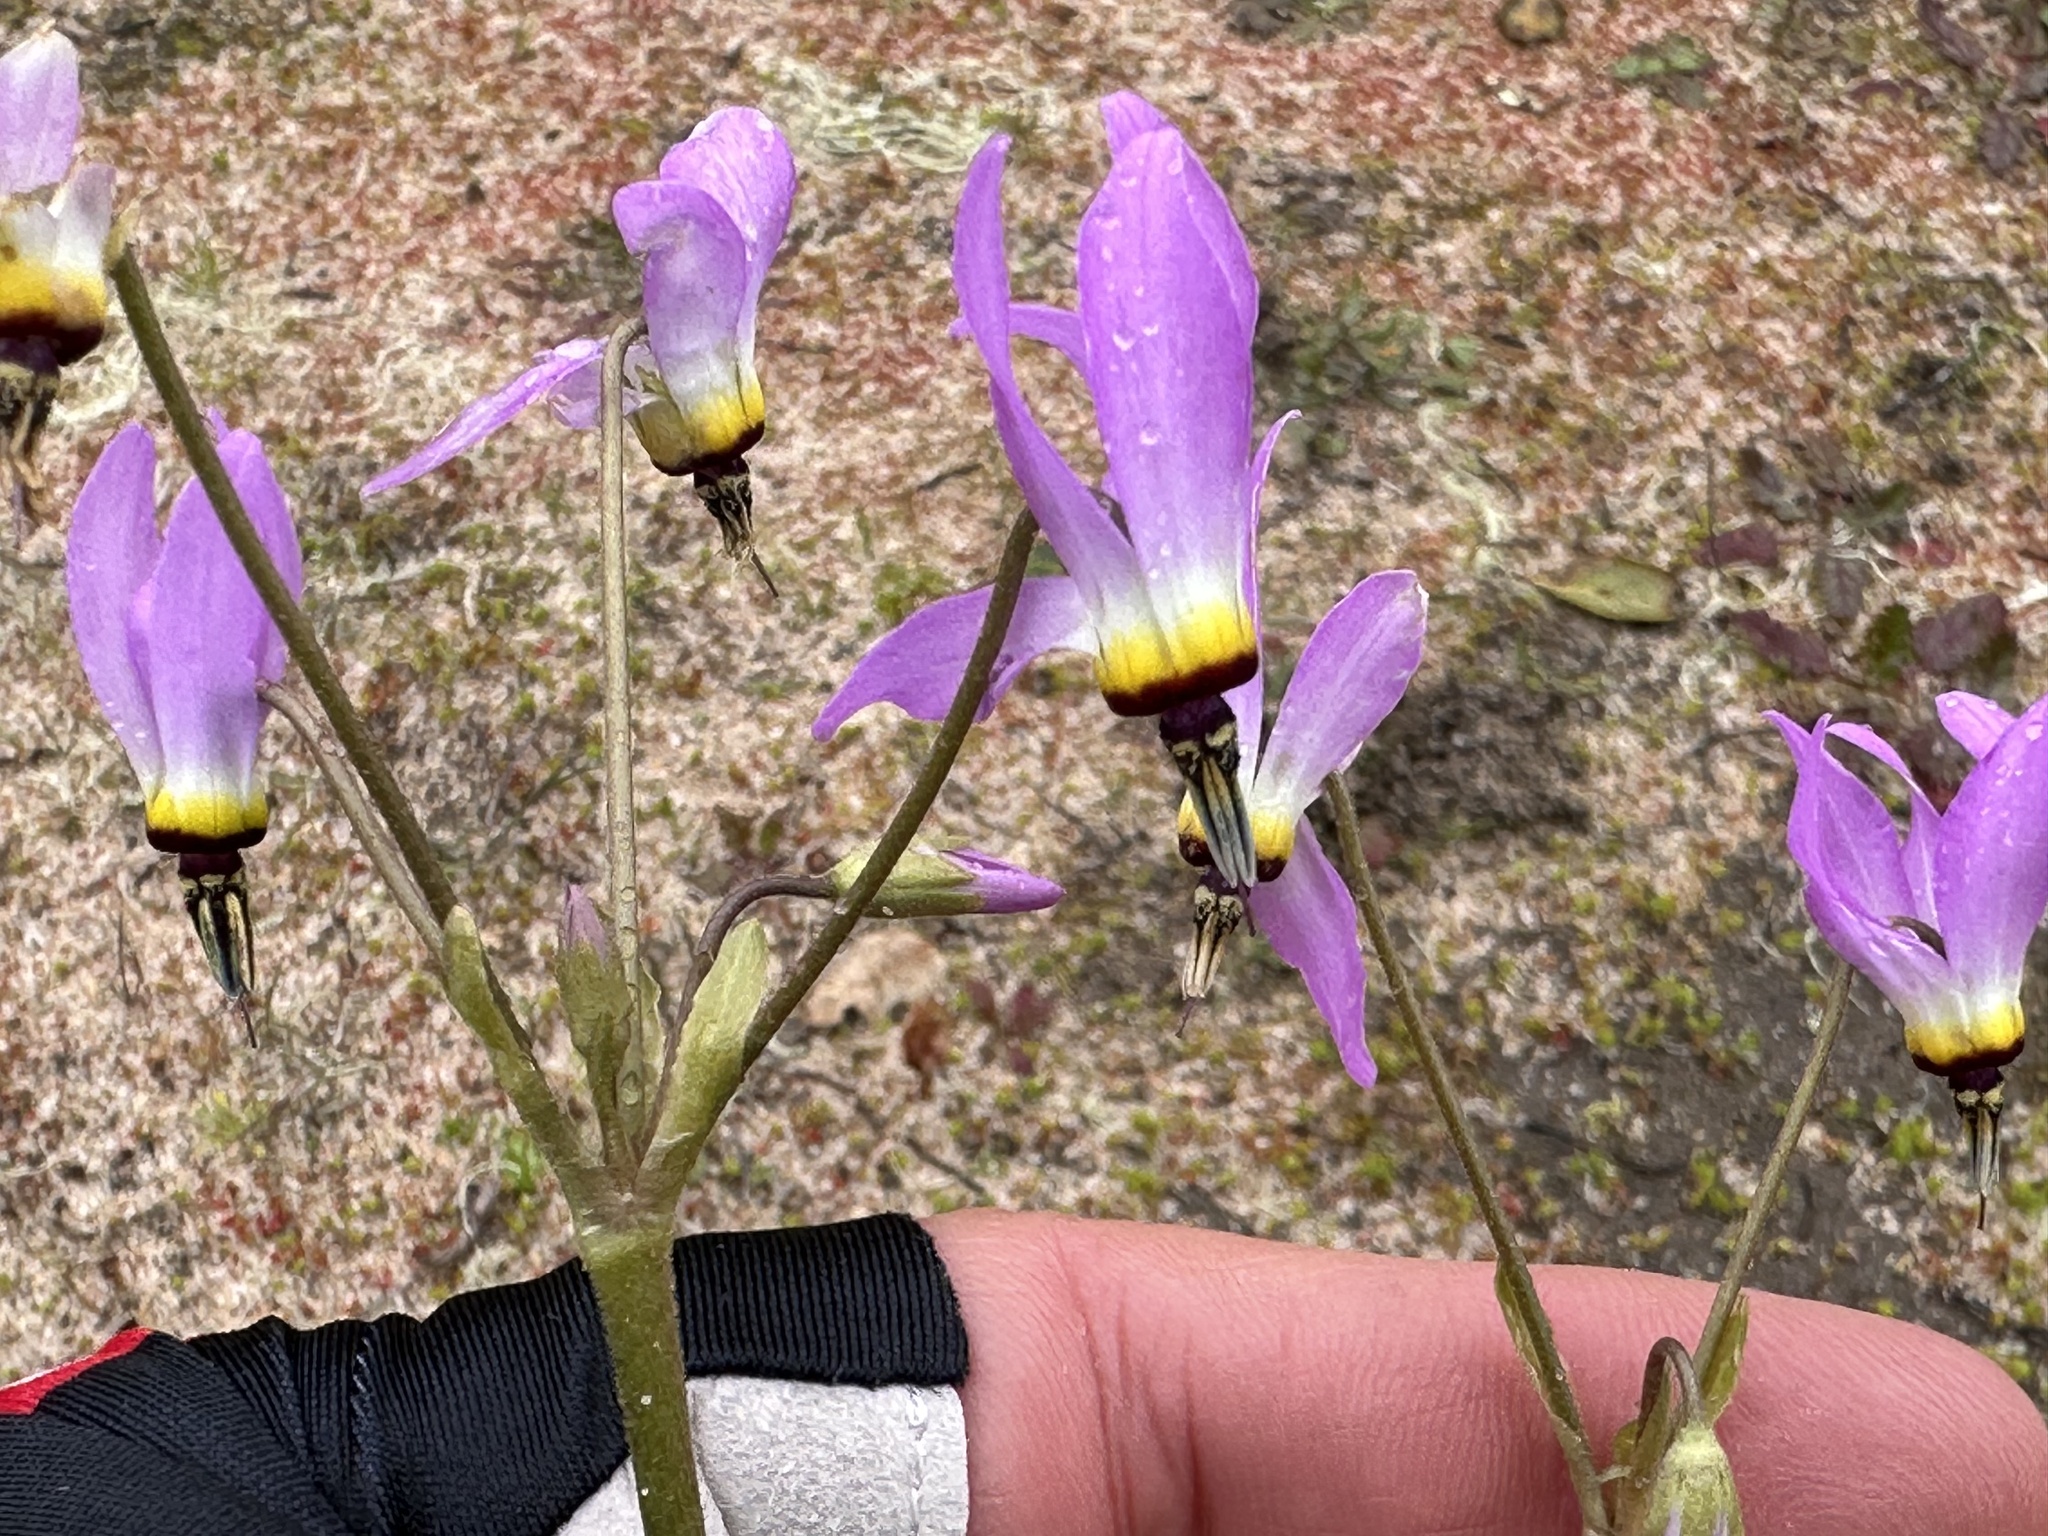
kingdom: Plantae
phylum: Tracheophyta
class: Magnoliopsida
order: Ericales
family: Primulaceae
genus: Dodecatheon
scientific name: Dodecatheon clevelandii
